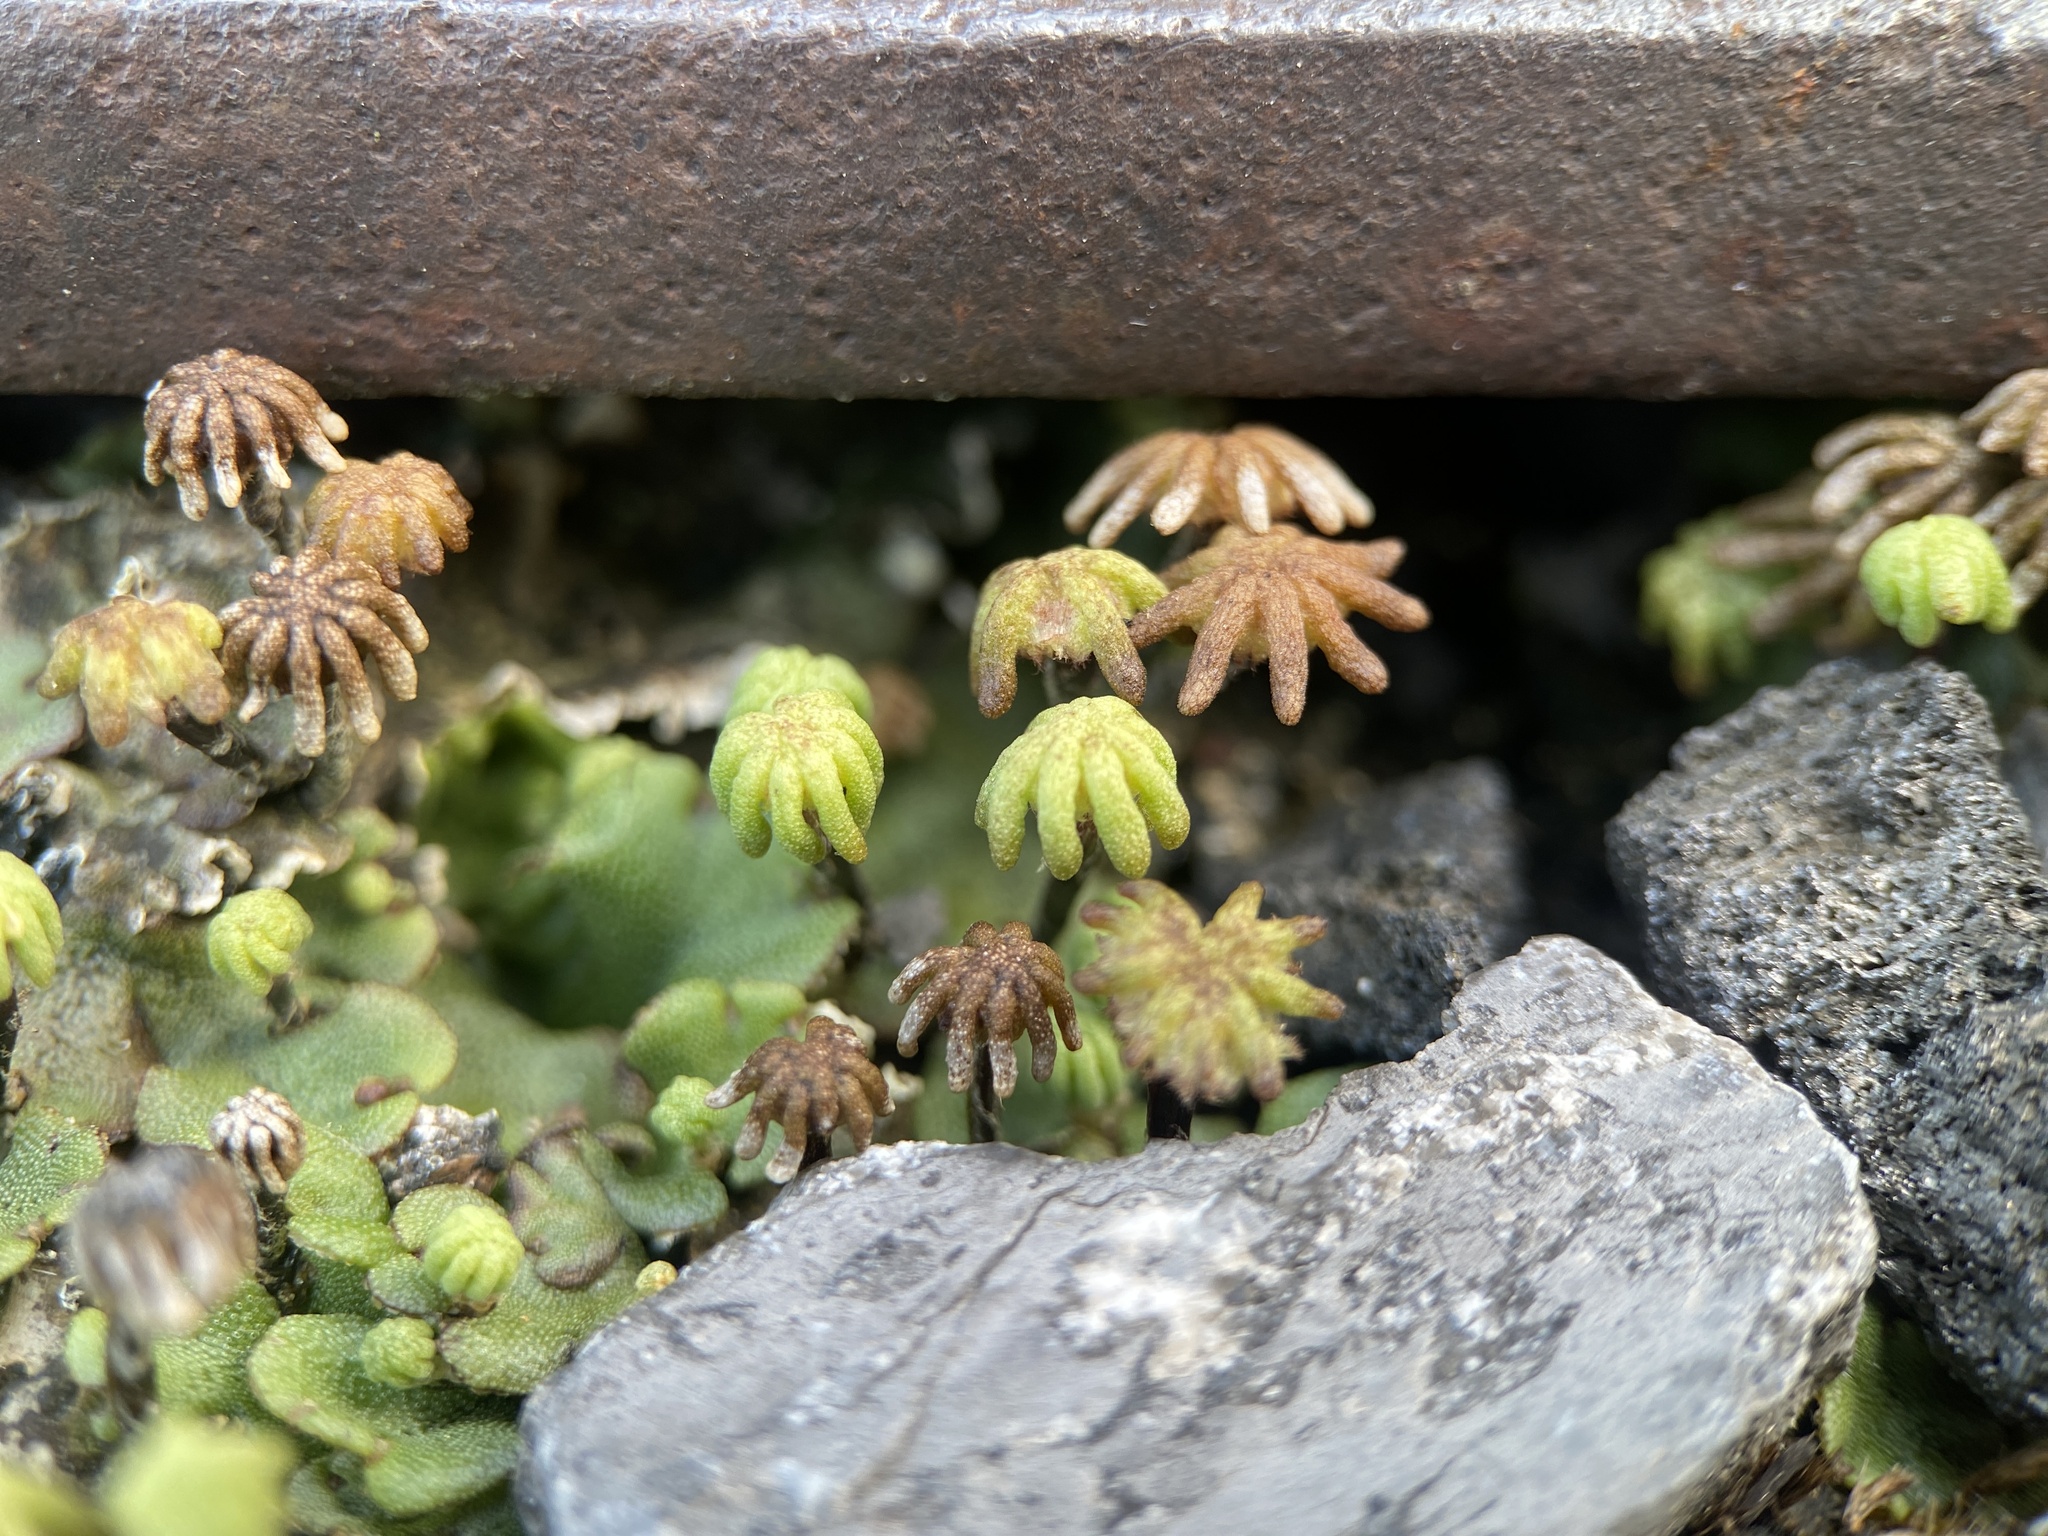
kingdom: Plantae
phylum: Marchantiophyta
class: Marchantiopsida
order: Marchantiales
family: Marchantiaceae
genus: Marchantia
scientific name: Marchantia polymorpha
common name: Common liverwort
